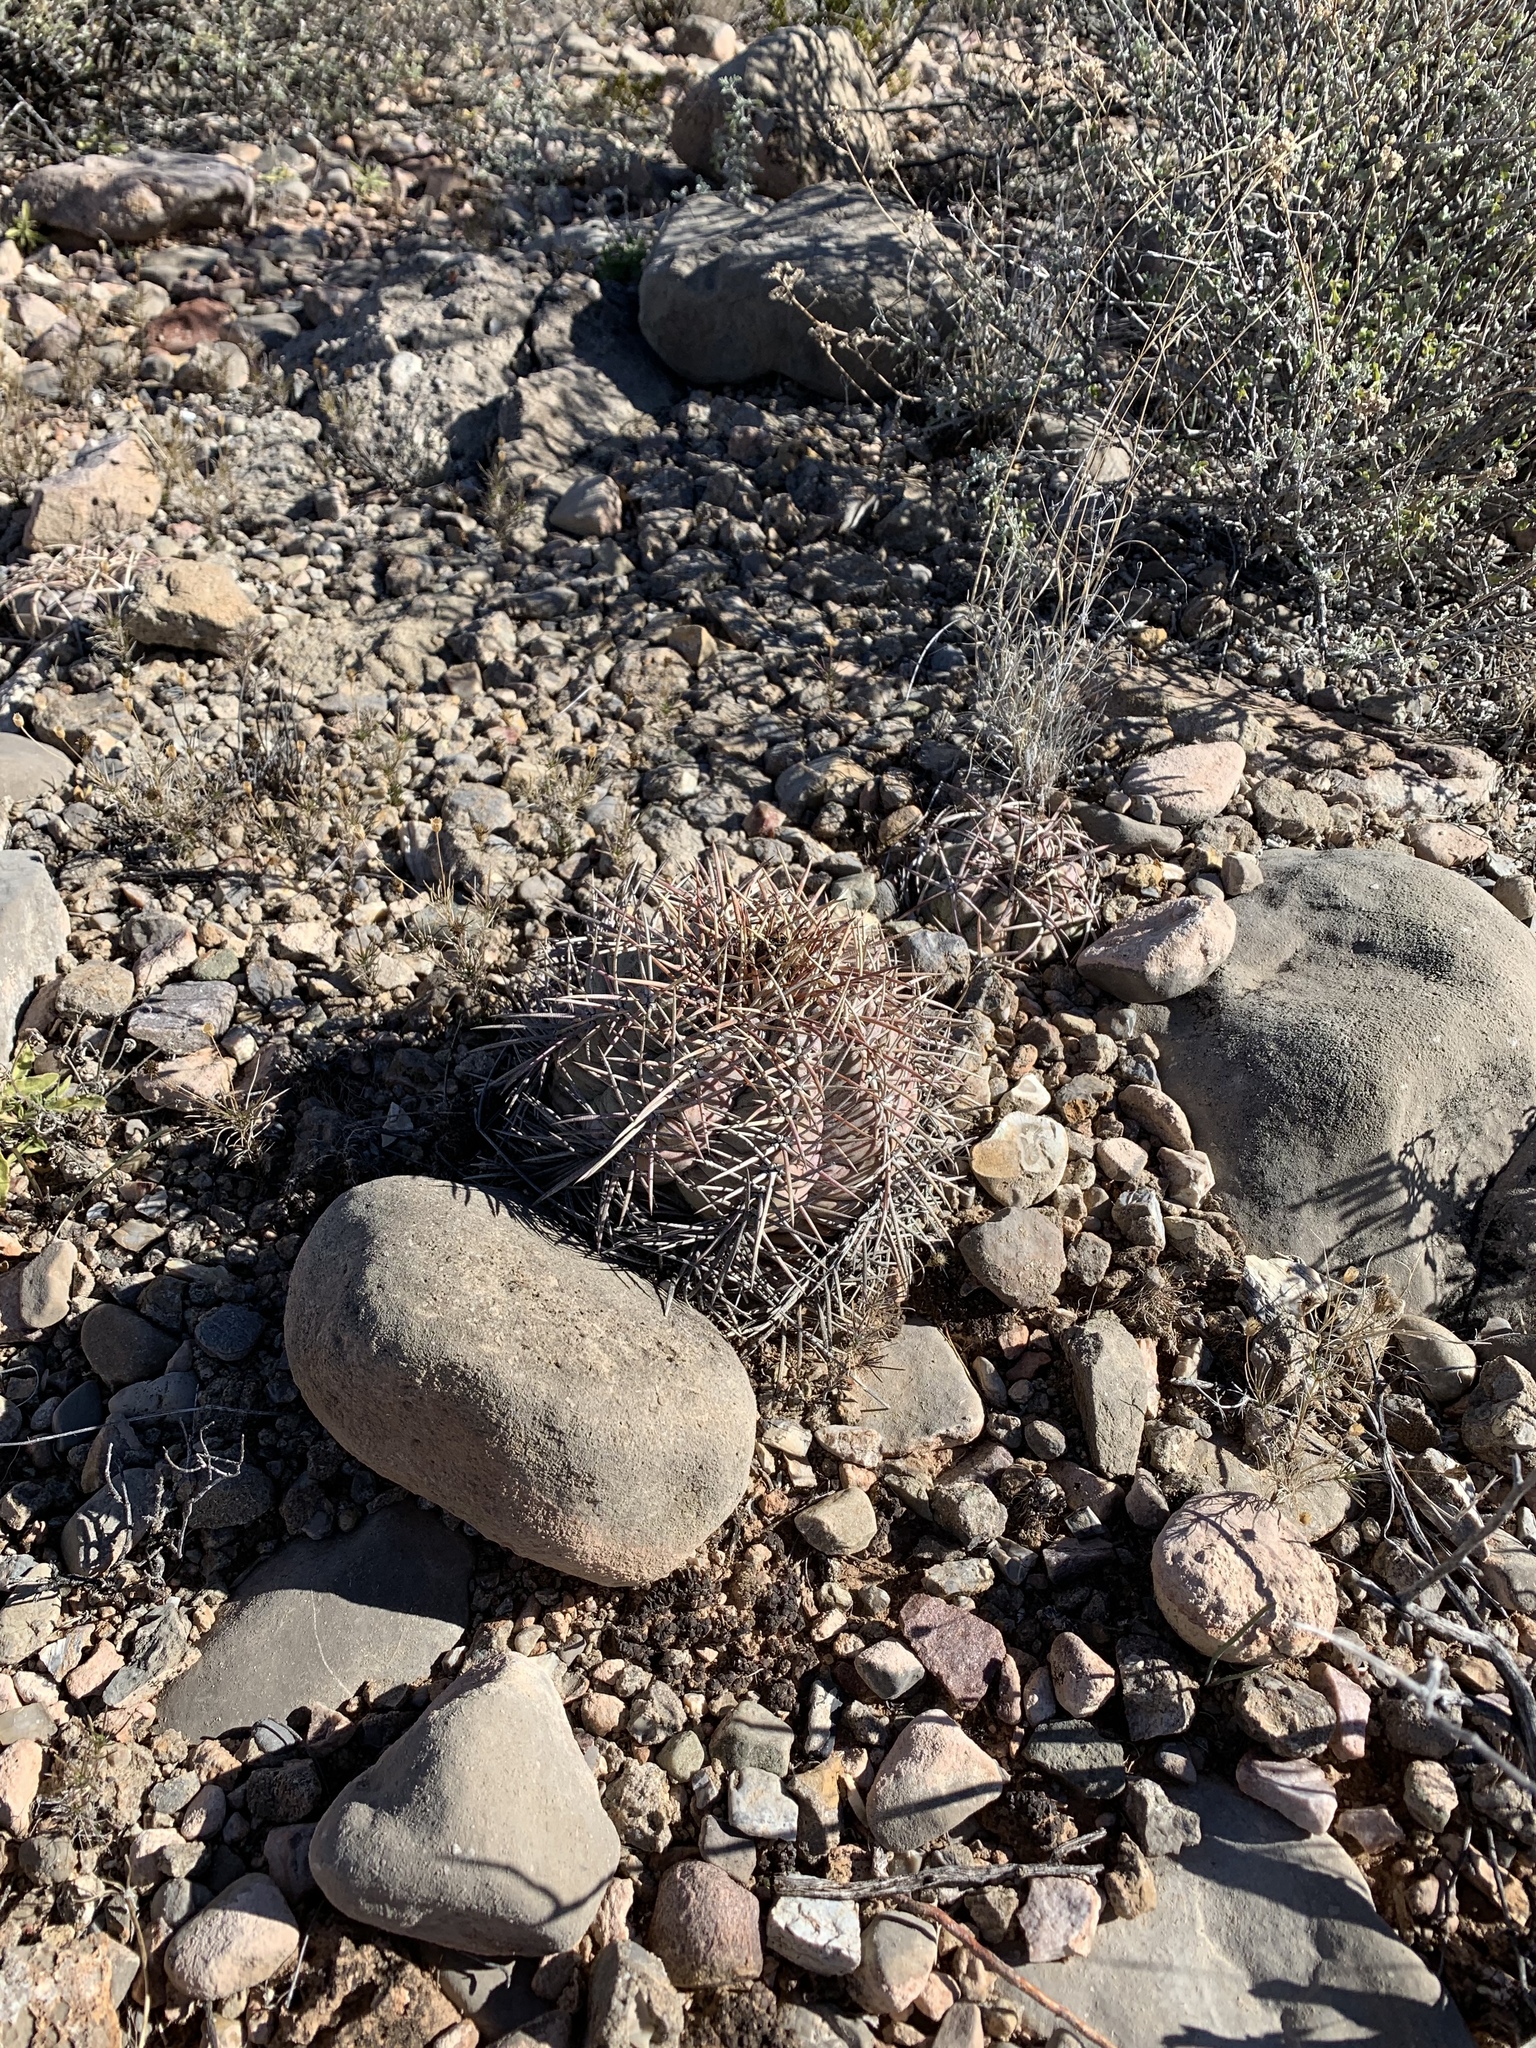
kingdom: Plantae
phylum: Tracheophyta
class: Magnoliopsida
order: Caryophyllales
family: Cactaceae
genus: Echinocactus
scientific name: Echinocactus horizonthalonius
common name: Devilshead
